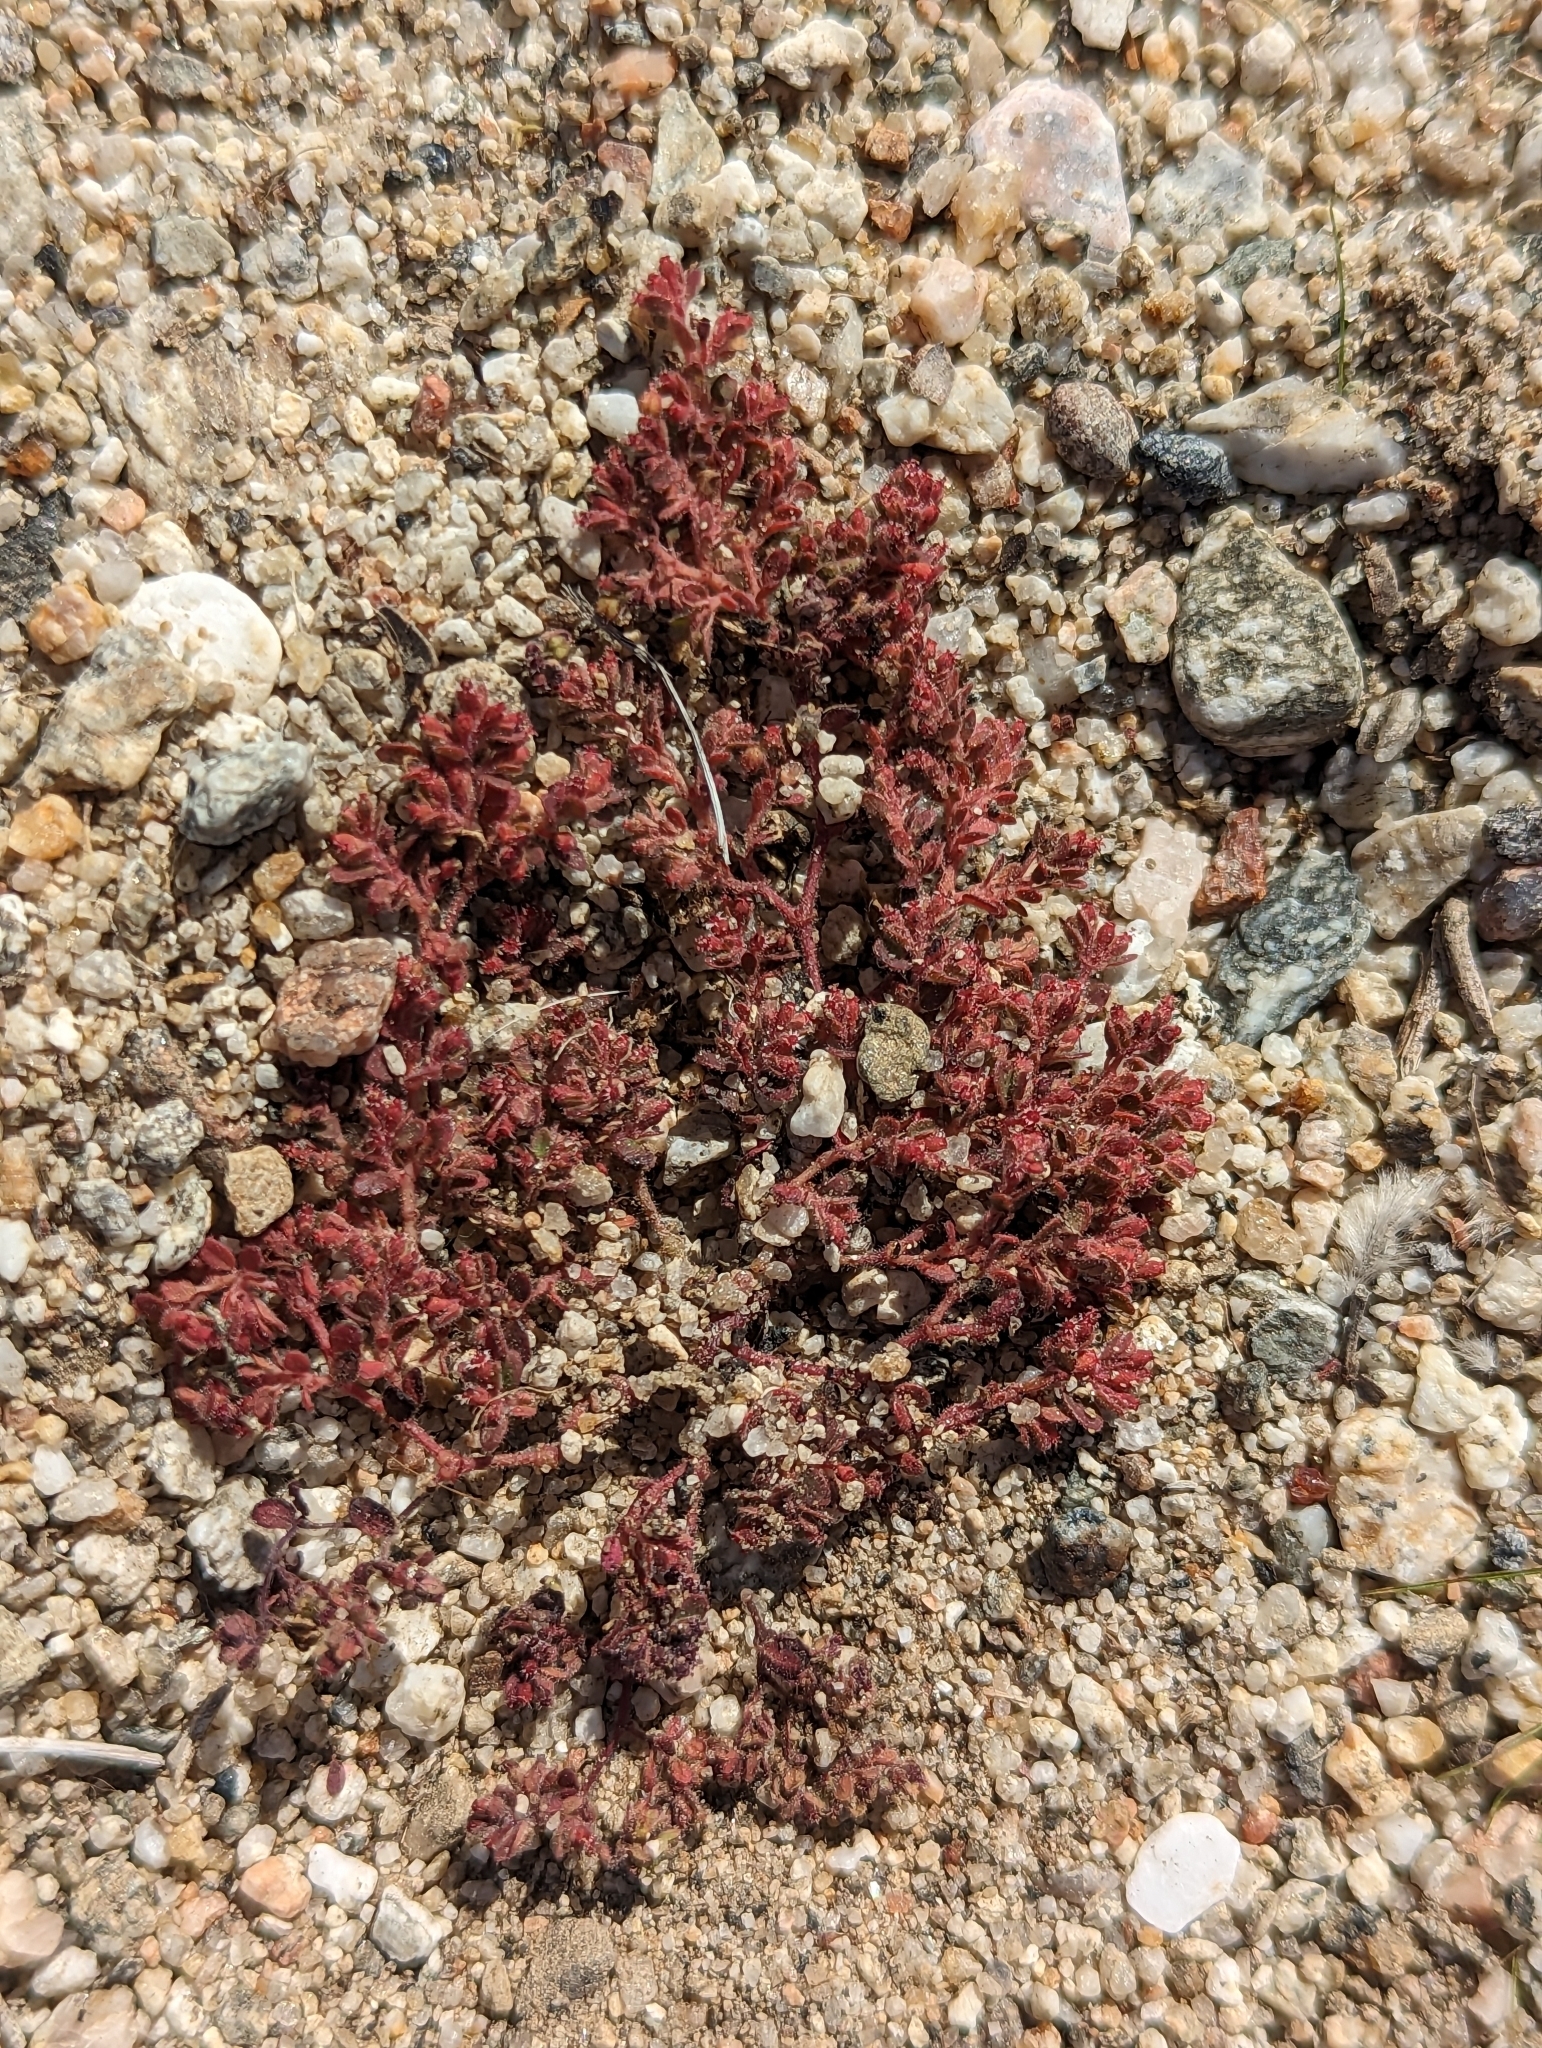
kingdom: Plantae
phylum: Tracheophyta
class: Magnoliopsida
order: Malpighiales
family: Euphorbiaceae
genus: Euphorbia
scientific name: Euphorbia setiloba
